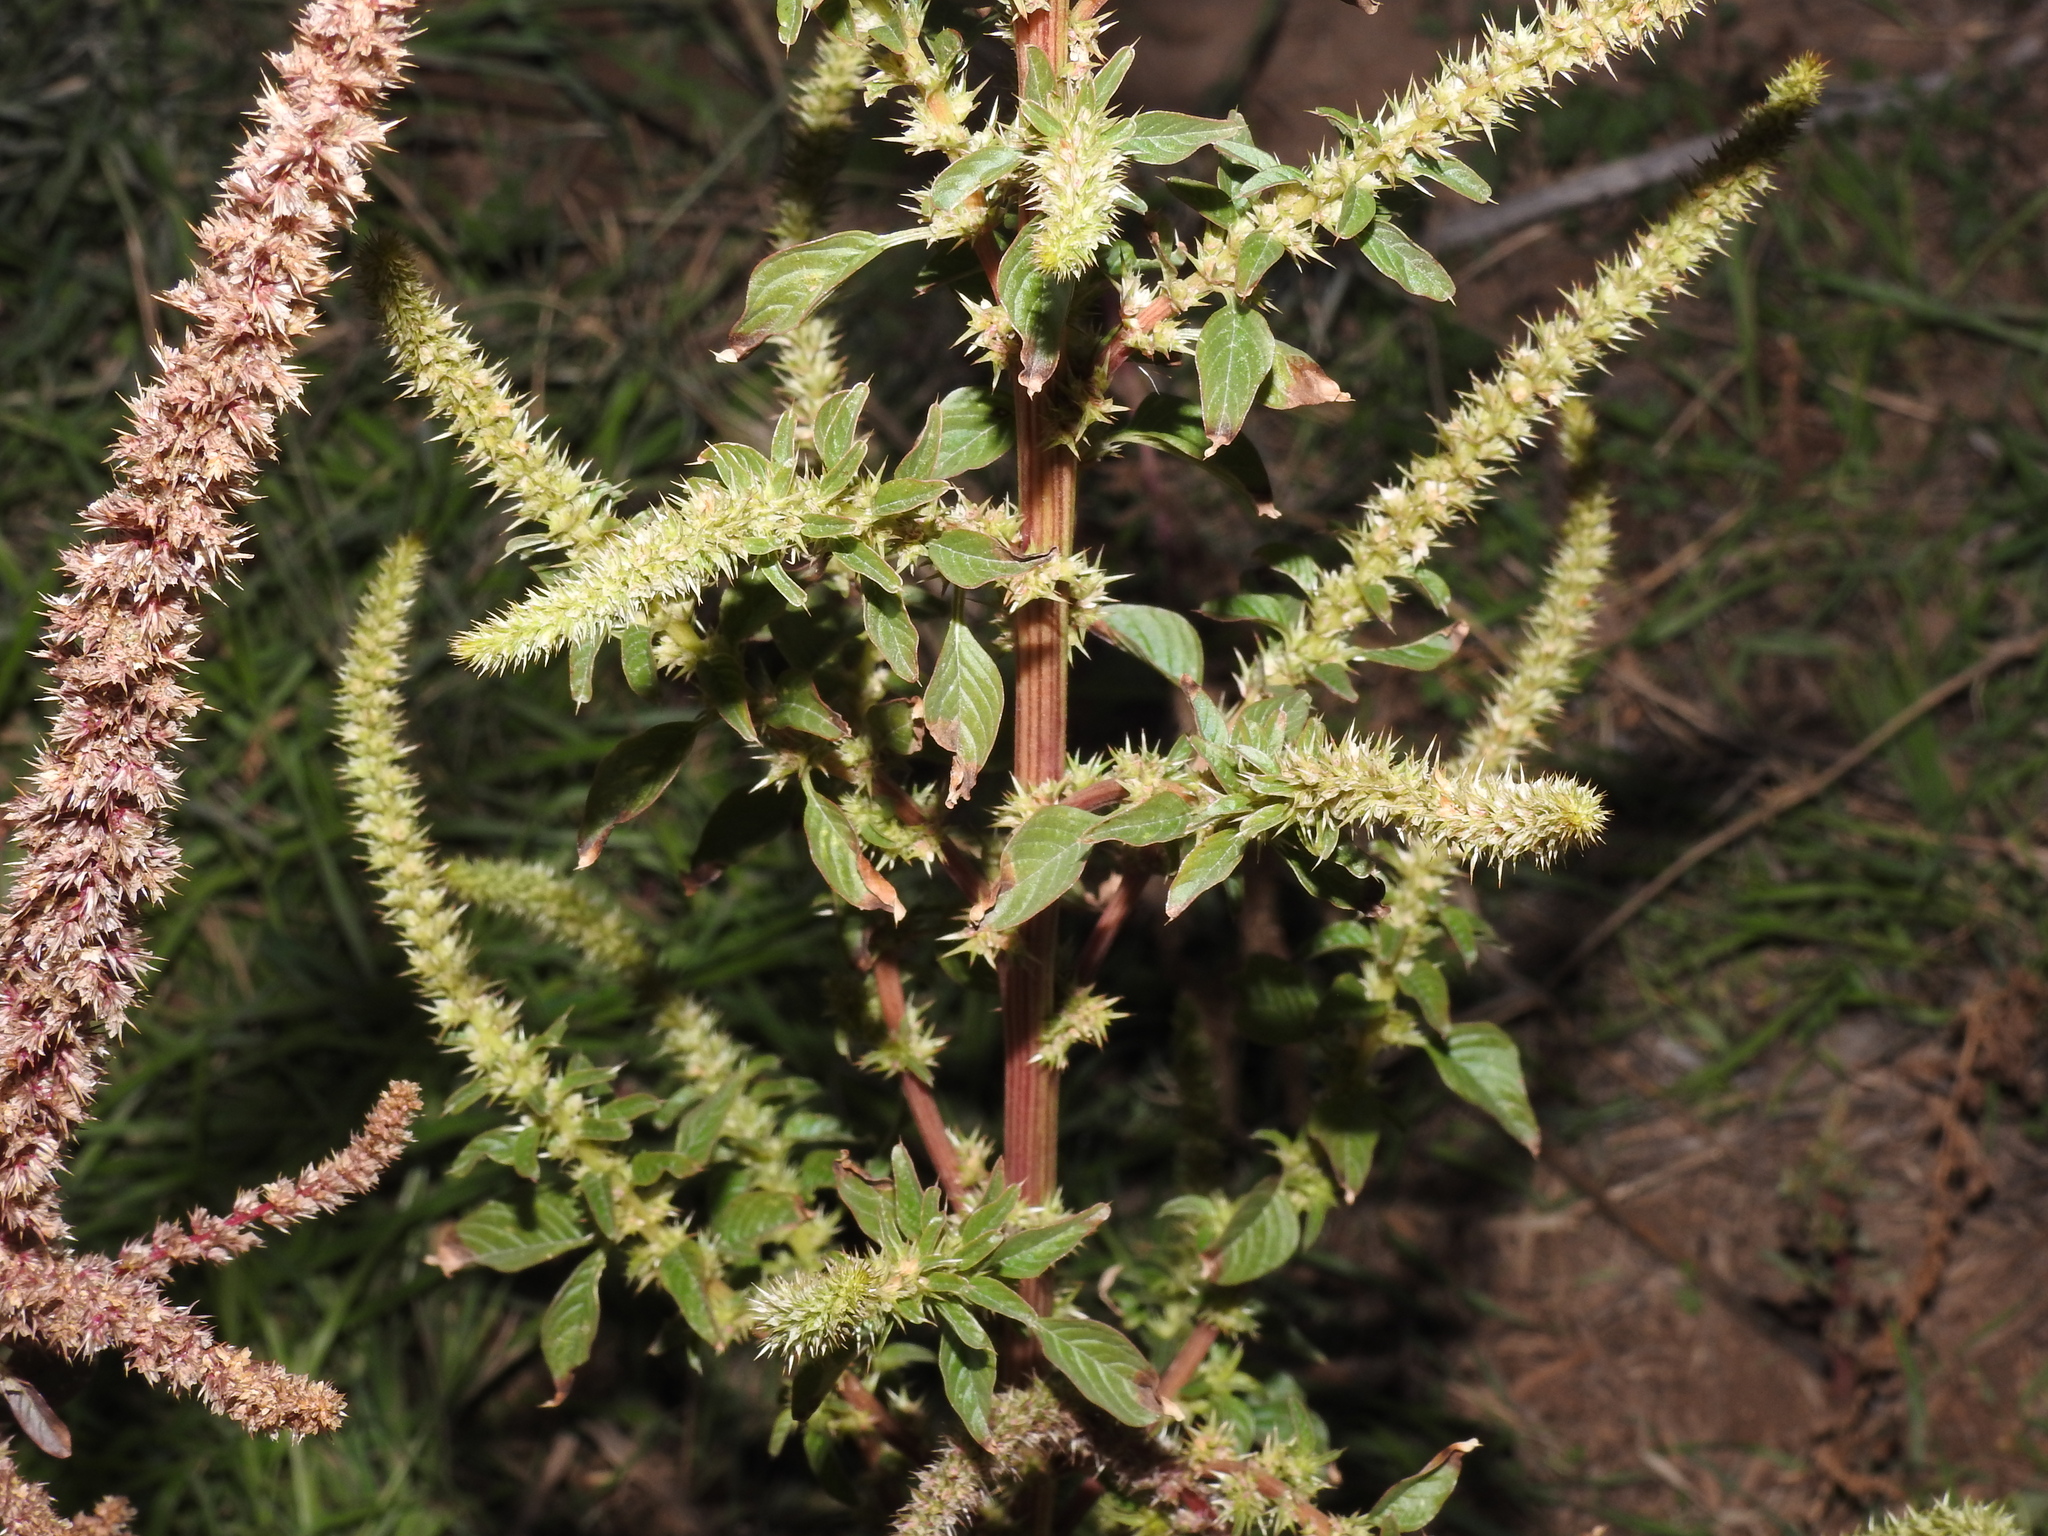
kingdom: Plantae
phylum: Tracheophyta
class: Magnoliopsida
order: Caryophyllales
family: Amaranthaceae
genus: Amaranthus
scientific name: Amaranthus palmeri
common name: Dioecious amaranth
